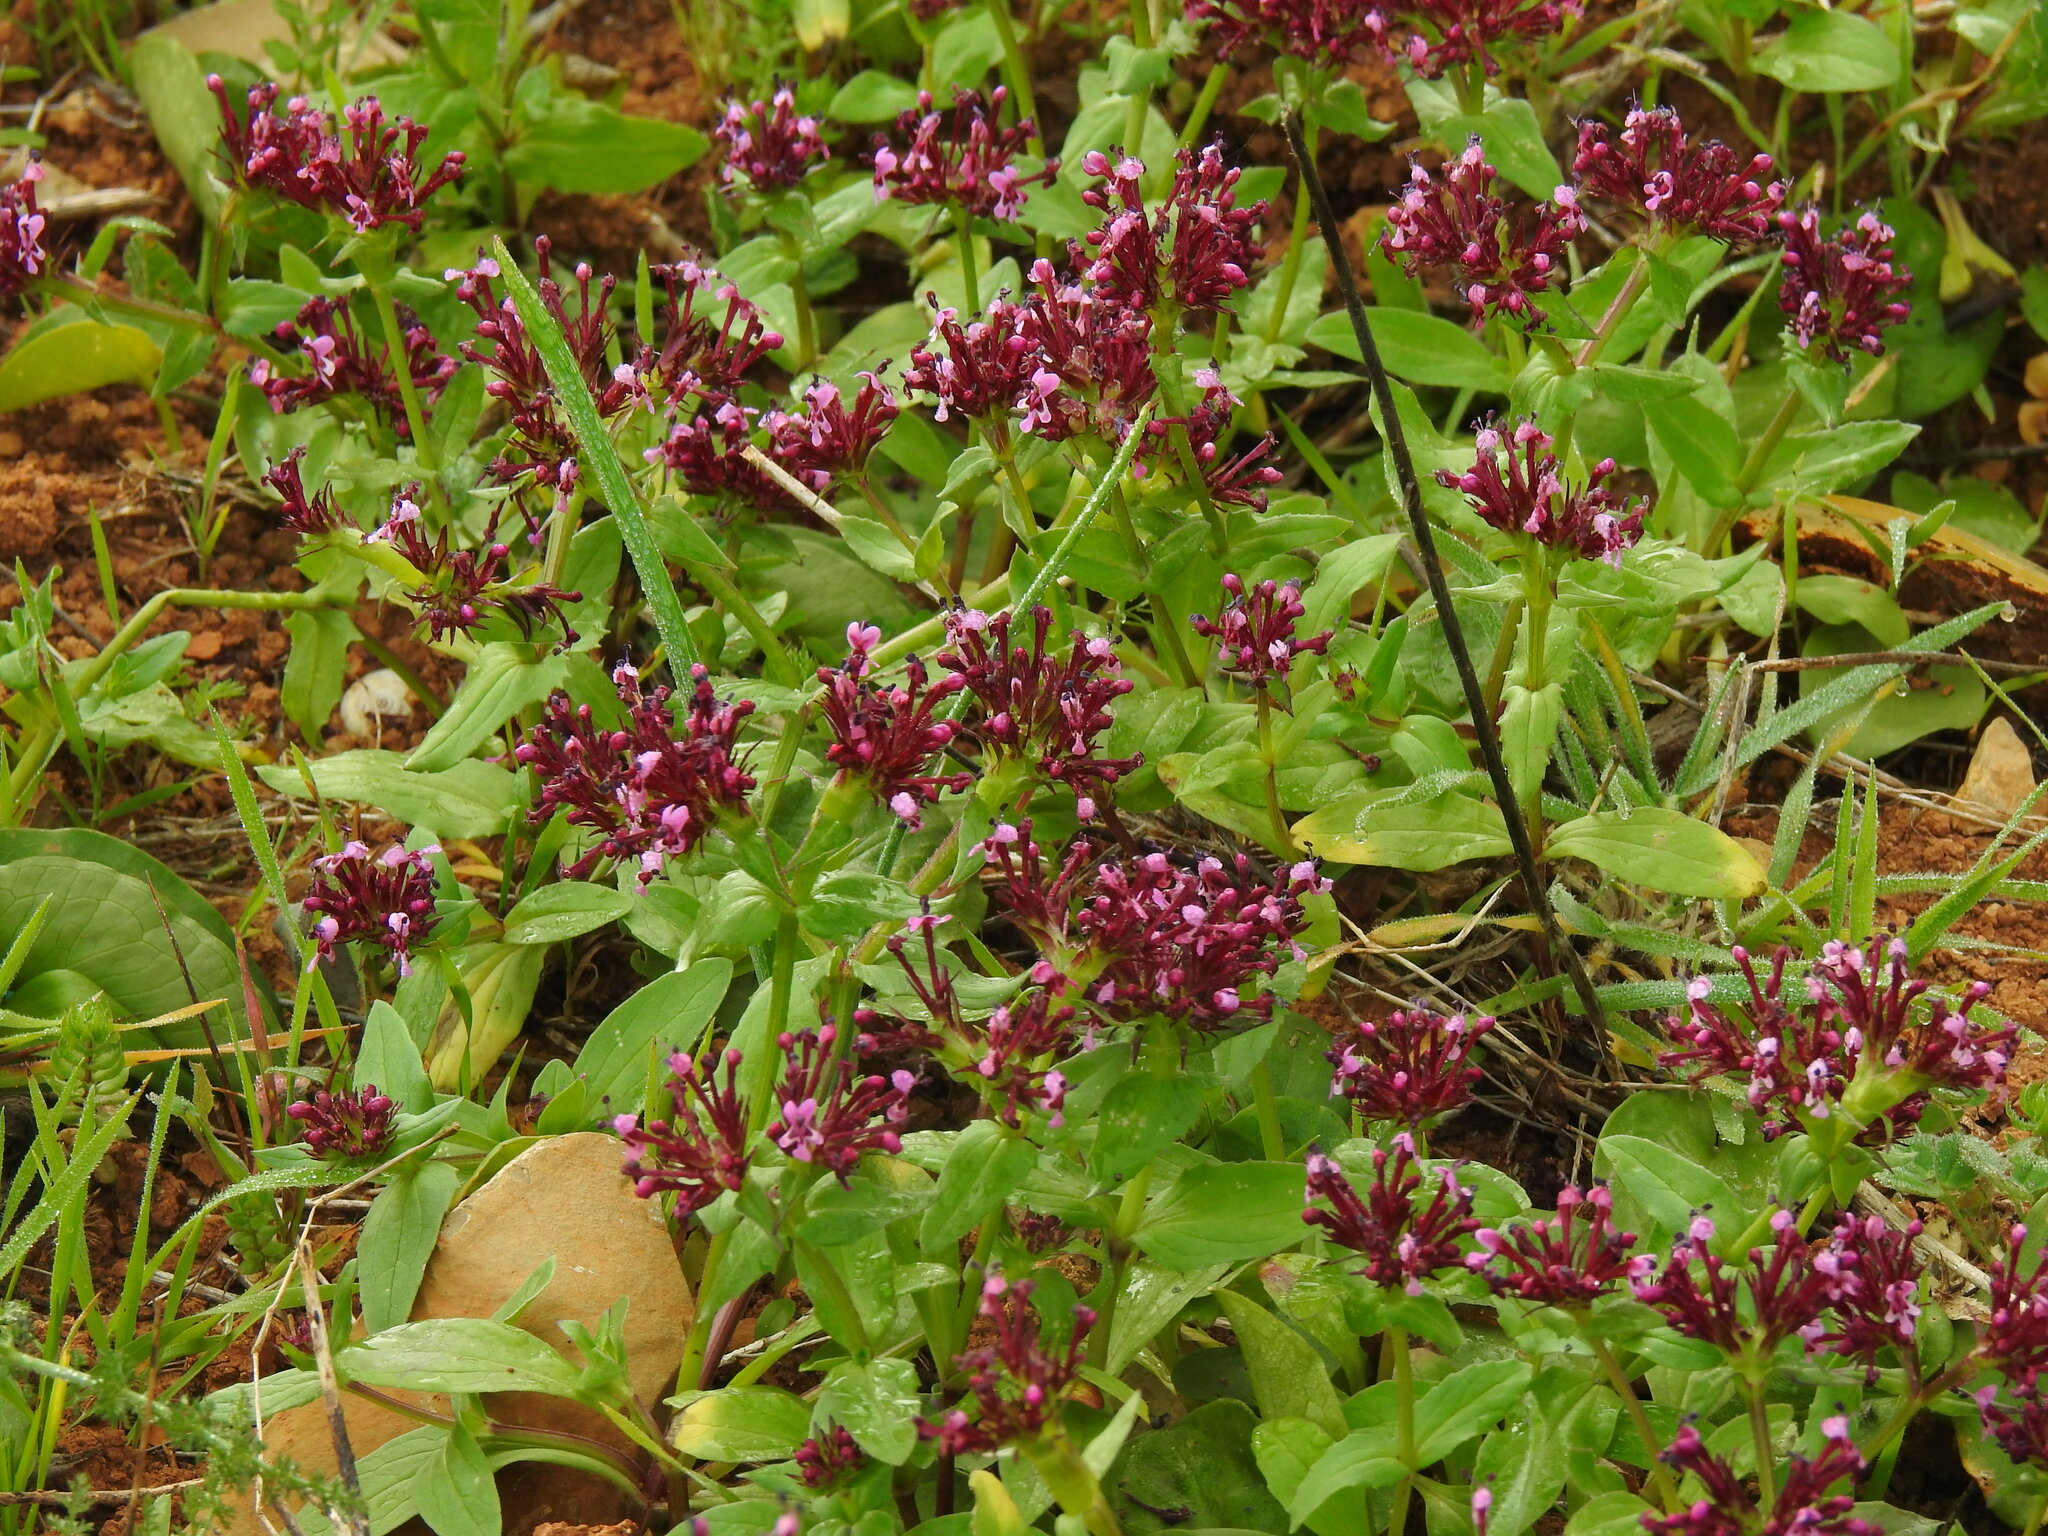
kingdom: Plantae
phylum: Tracheophyta
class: Magnoliopsida
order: Dipsacales
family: Caprifoliaceae
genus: Fedia
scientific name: Fedia cornucopiae
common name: Horn-of-plenty
